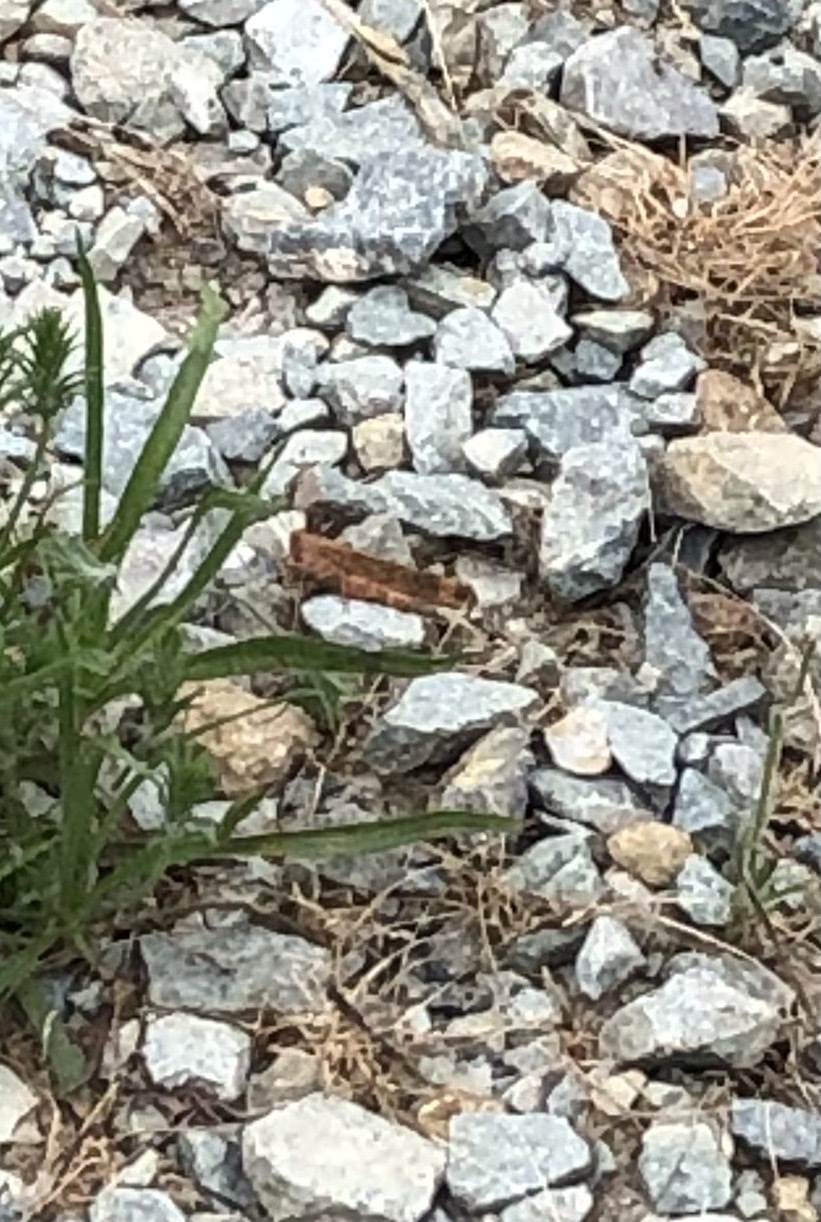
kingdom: Animalia
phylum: Arthropoda
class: Insecta
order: Orthoptera
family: Acrididae
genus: Dissosteira
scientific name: Dissosteira carolina
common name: Carolina grasshopper
